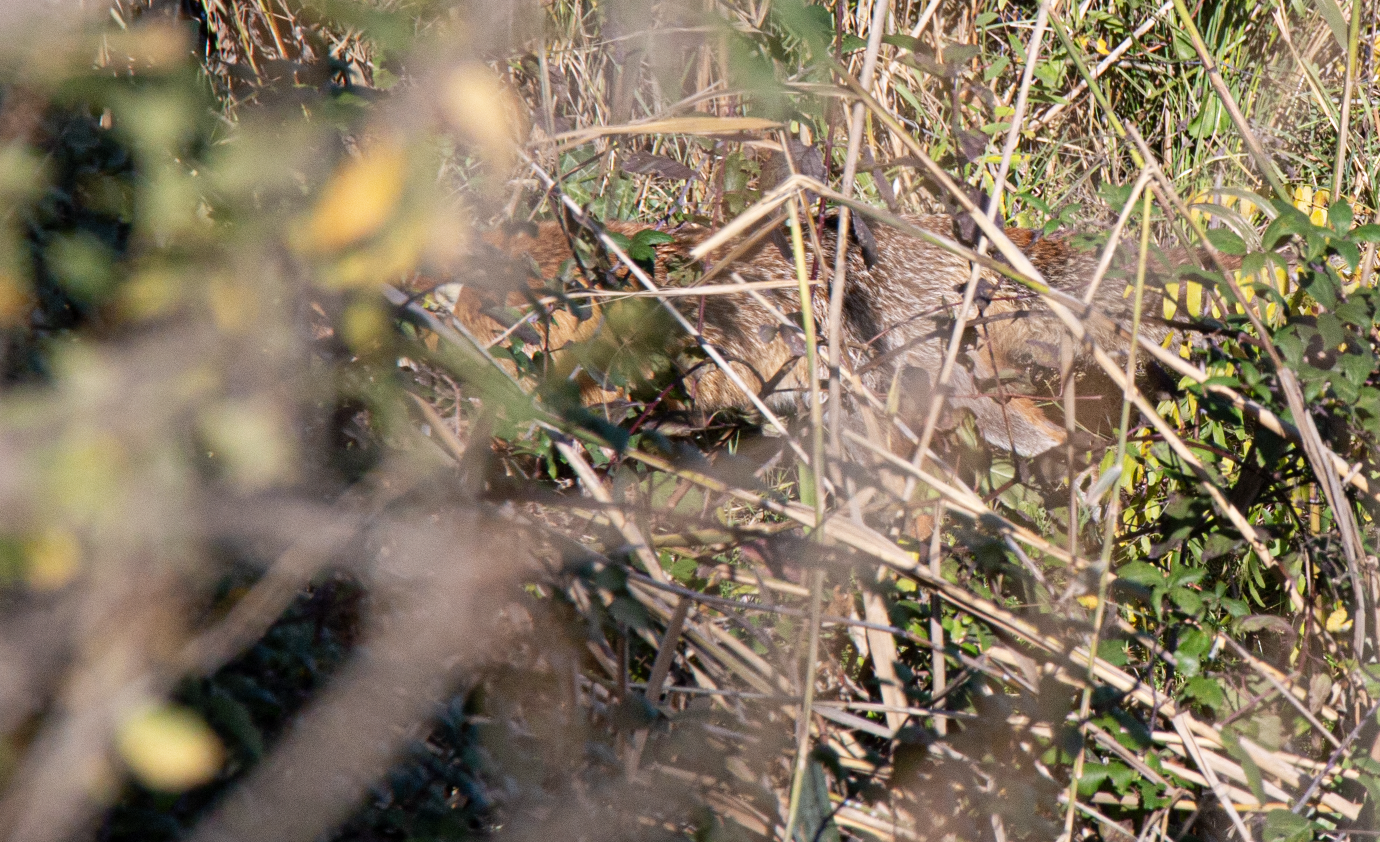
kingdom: Animalia
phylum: Chordata
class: Mammalia
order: Carnivora
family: Canidae
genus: Vulpes
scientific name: Vulpes vulpes
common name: Red fox
